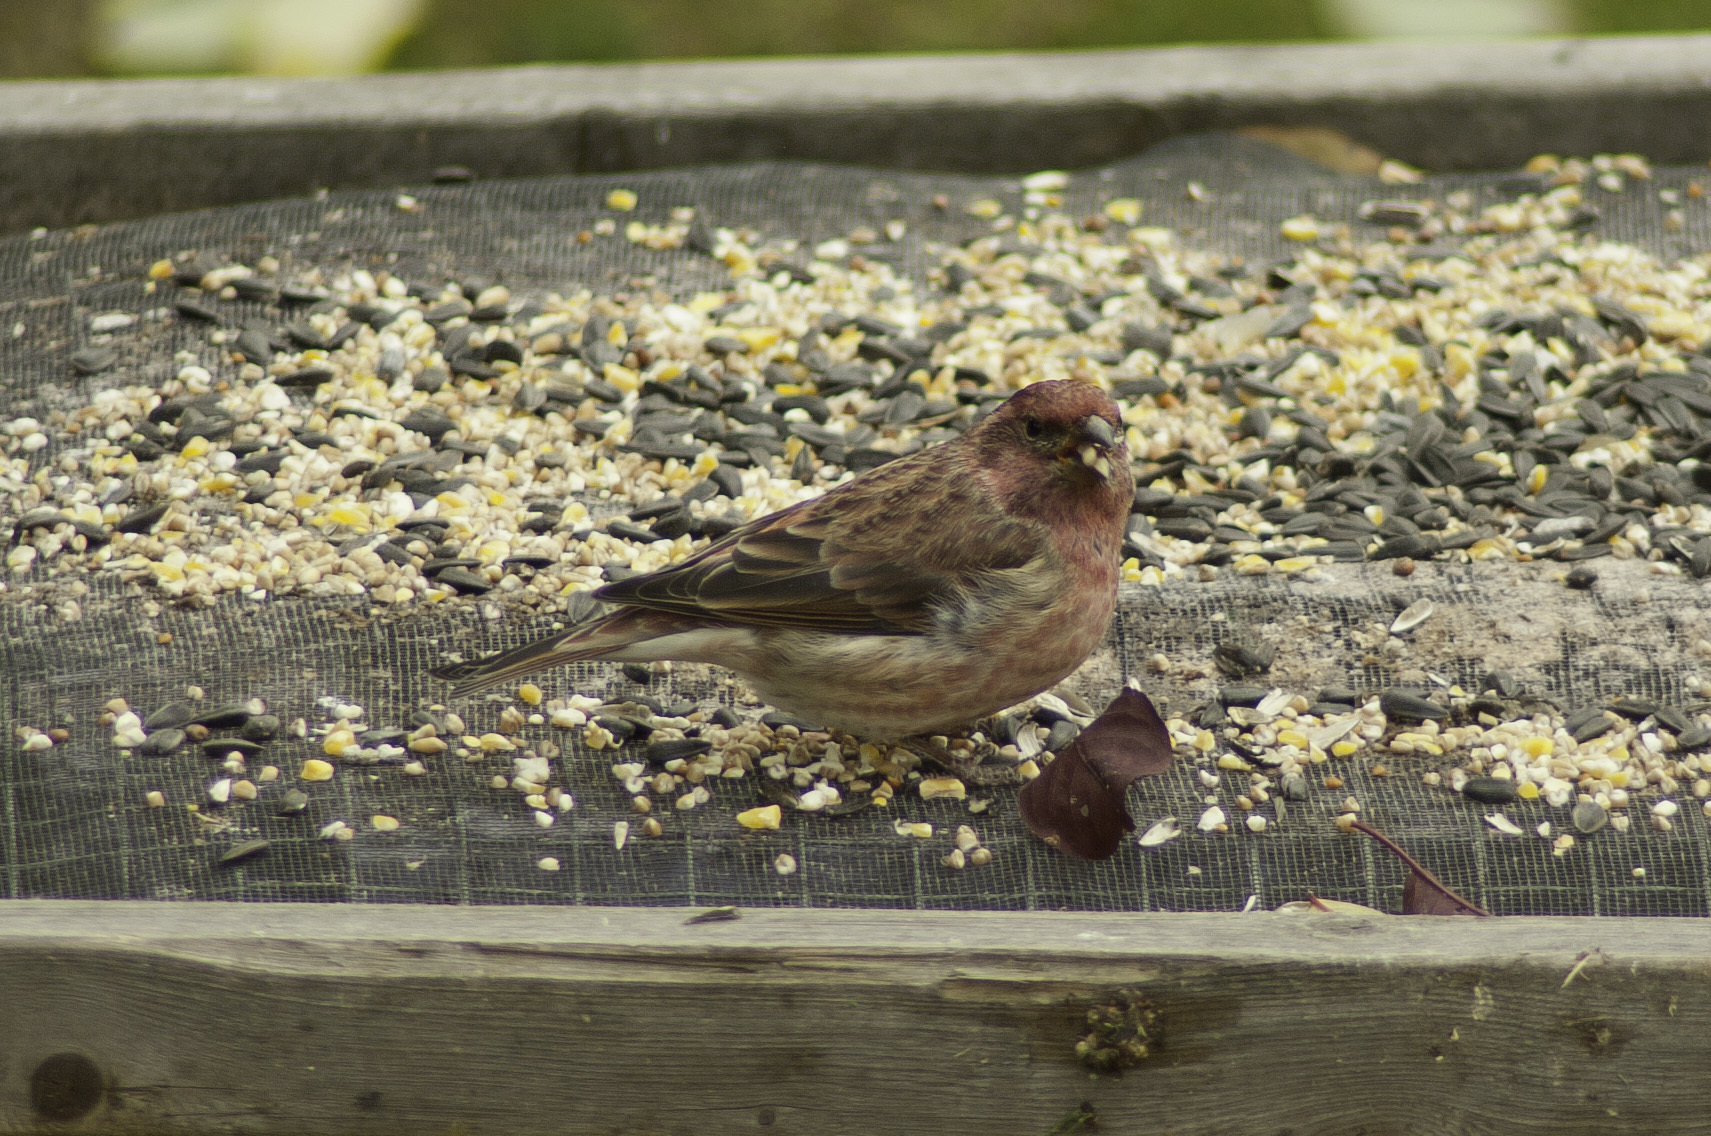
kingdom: Animalia
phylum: Chordata
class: Aves
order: Passeriformes
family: Fringillidae
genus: Haemorhous
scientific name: Haemorhous purpureus
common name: Purple finch
